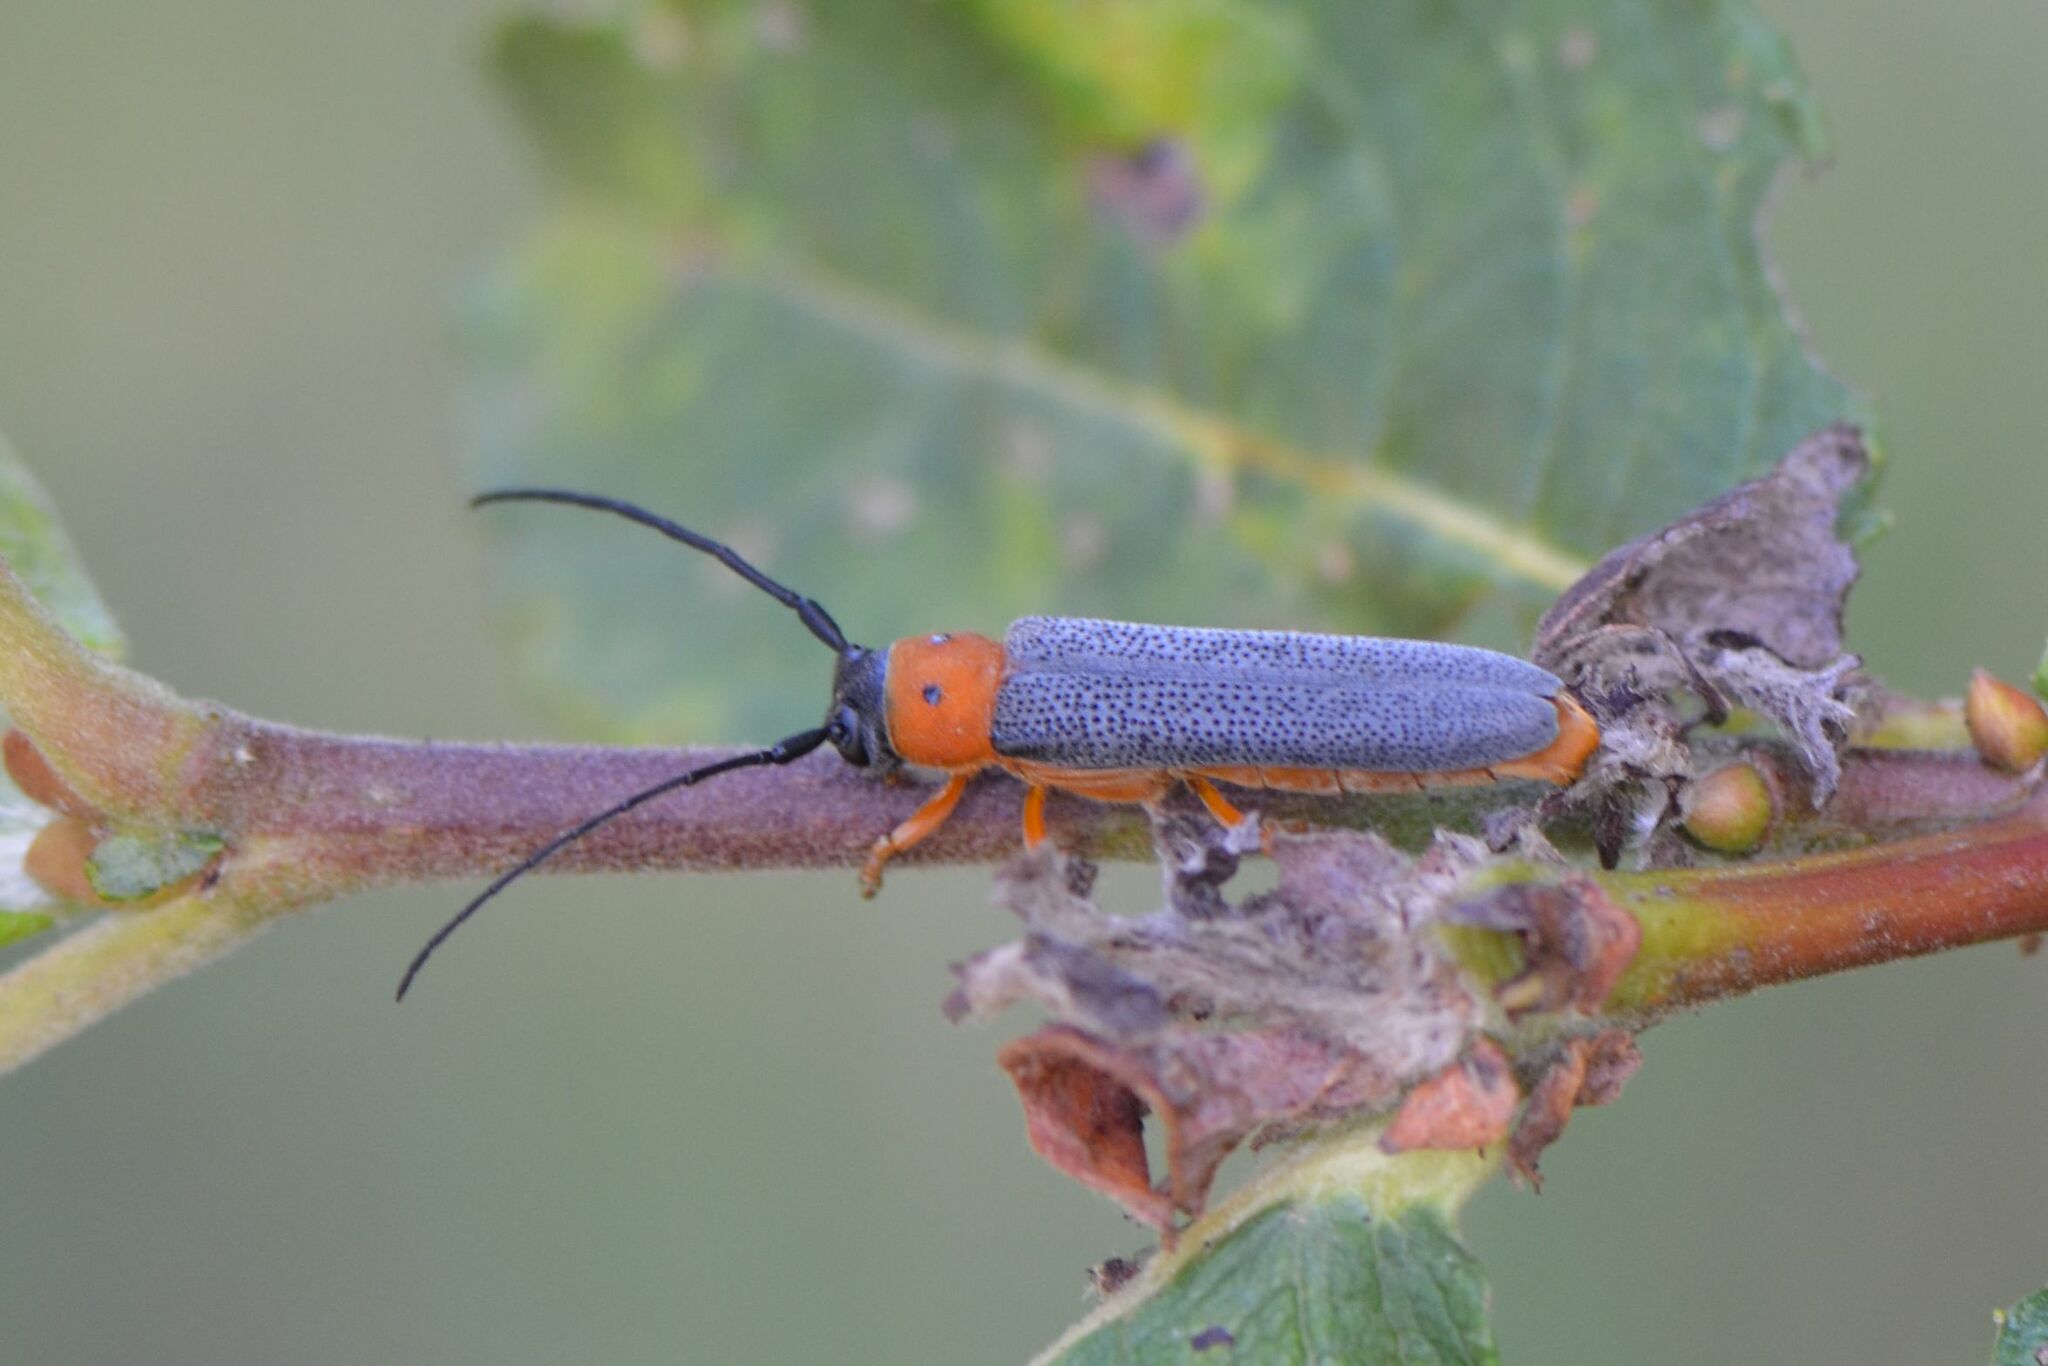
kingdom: Animalia
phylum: Arthropoda
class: Insecta
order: Coleoptera
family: Cerambycidae
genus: Oberea
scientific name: Oberea oculata
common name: Eyed longhorn beetle
